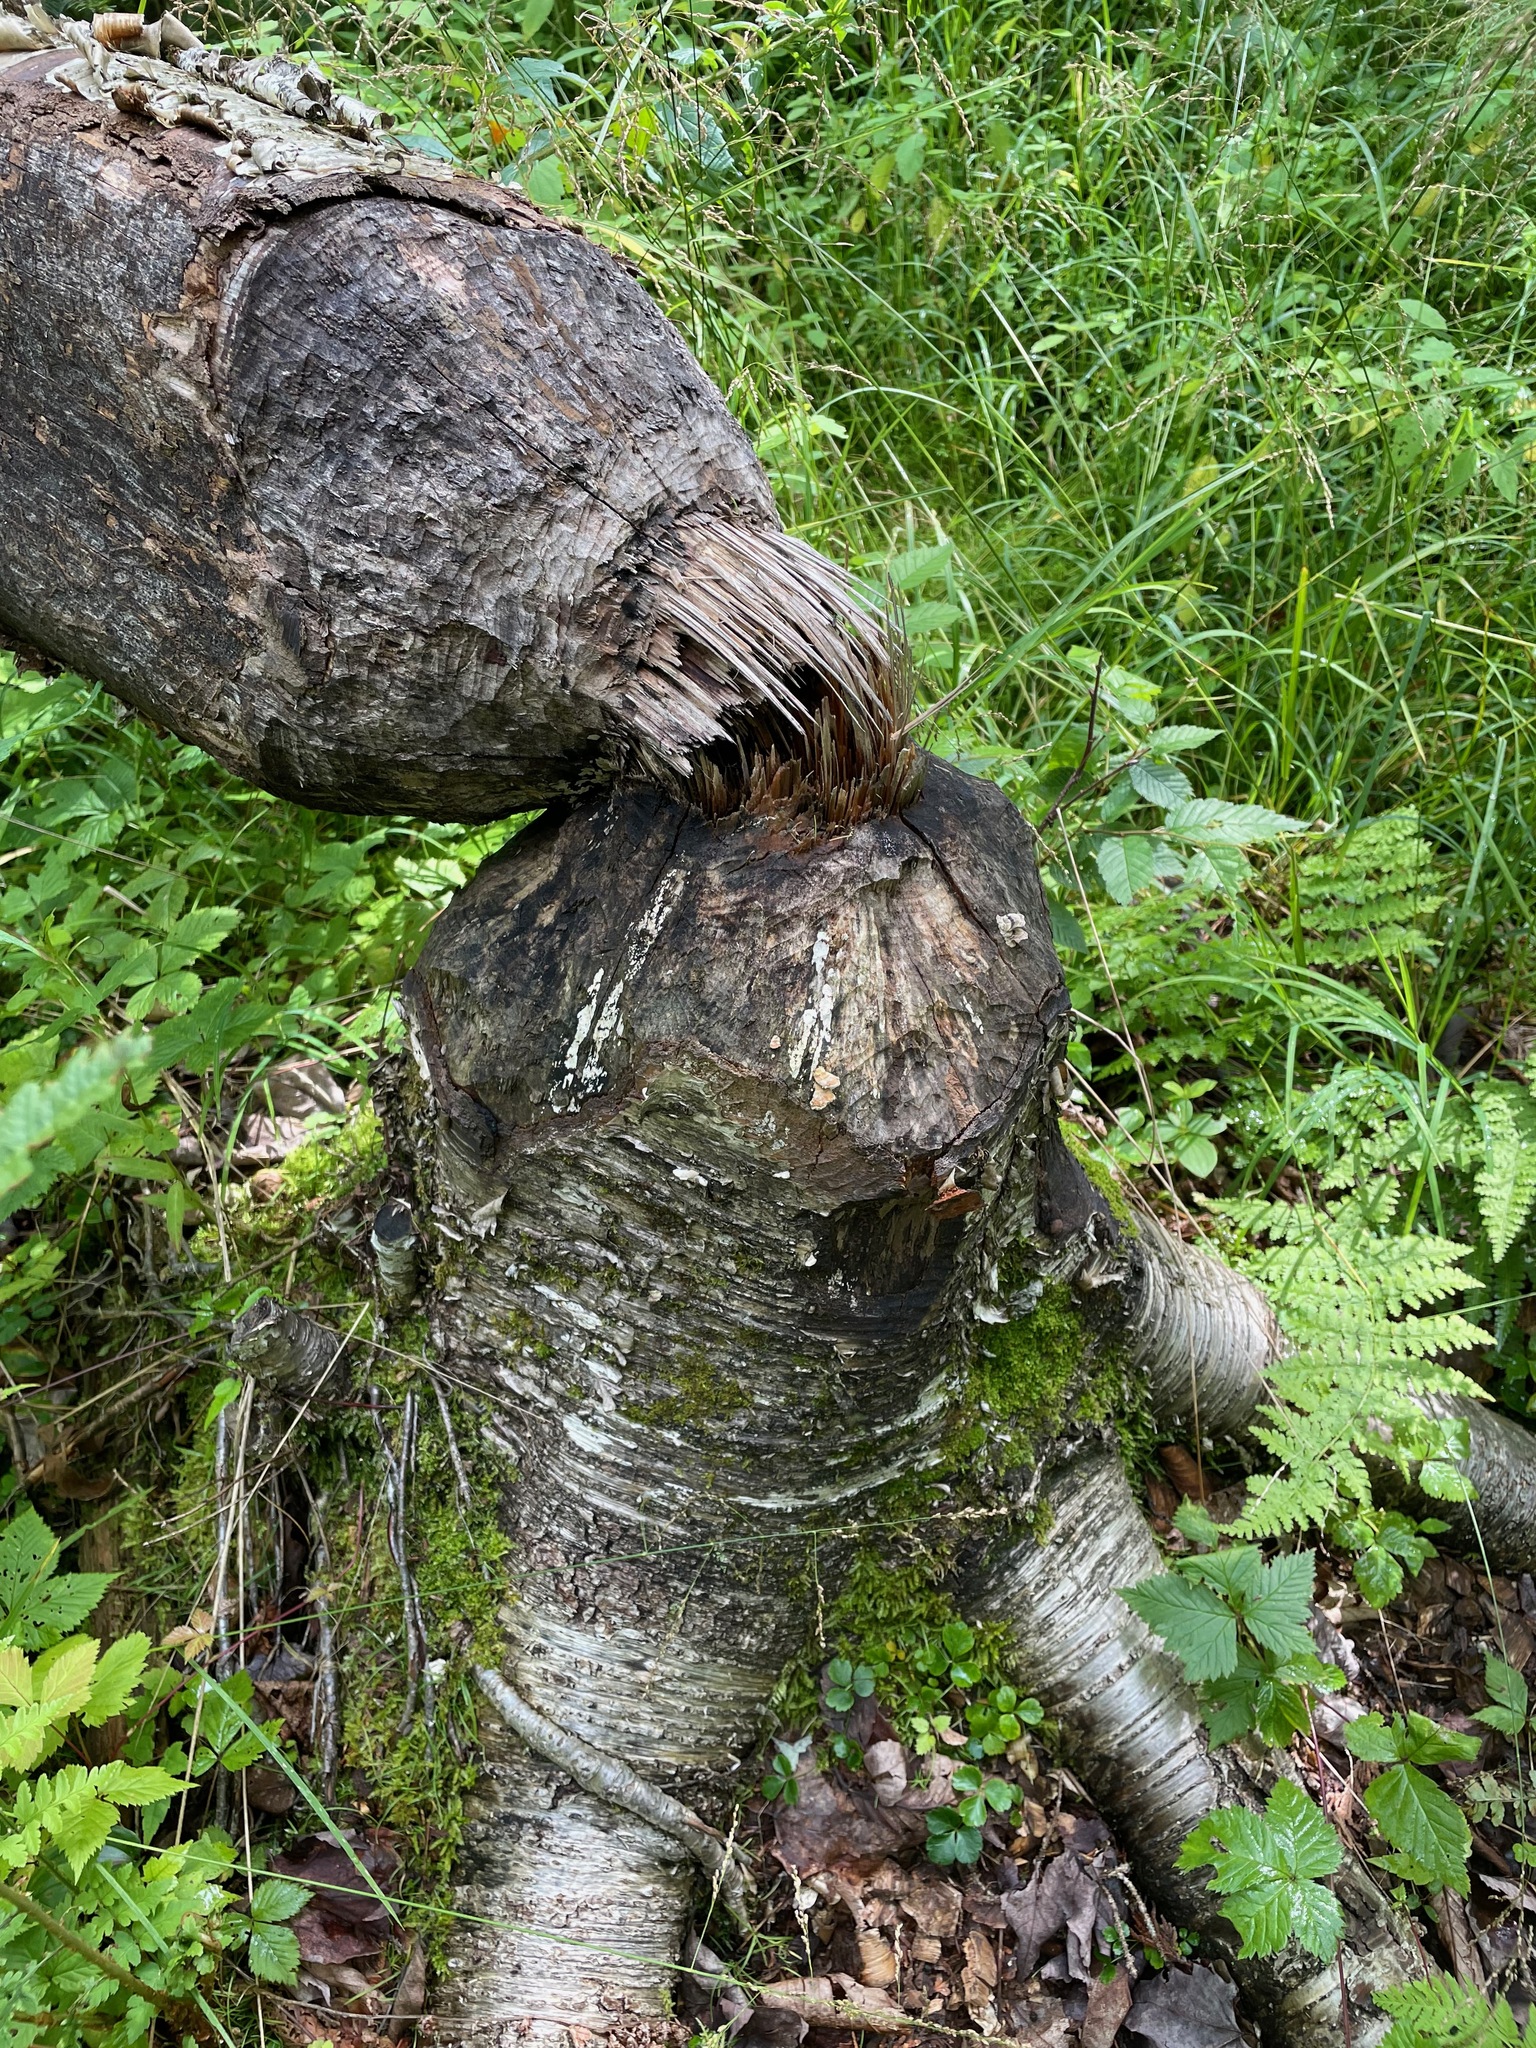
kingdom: Animalia
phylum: Chordata
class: Mammalia
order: Rodentia
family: Castoridae
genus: Castor
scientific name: Castor canadensis
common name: American beaver
